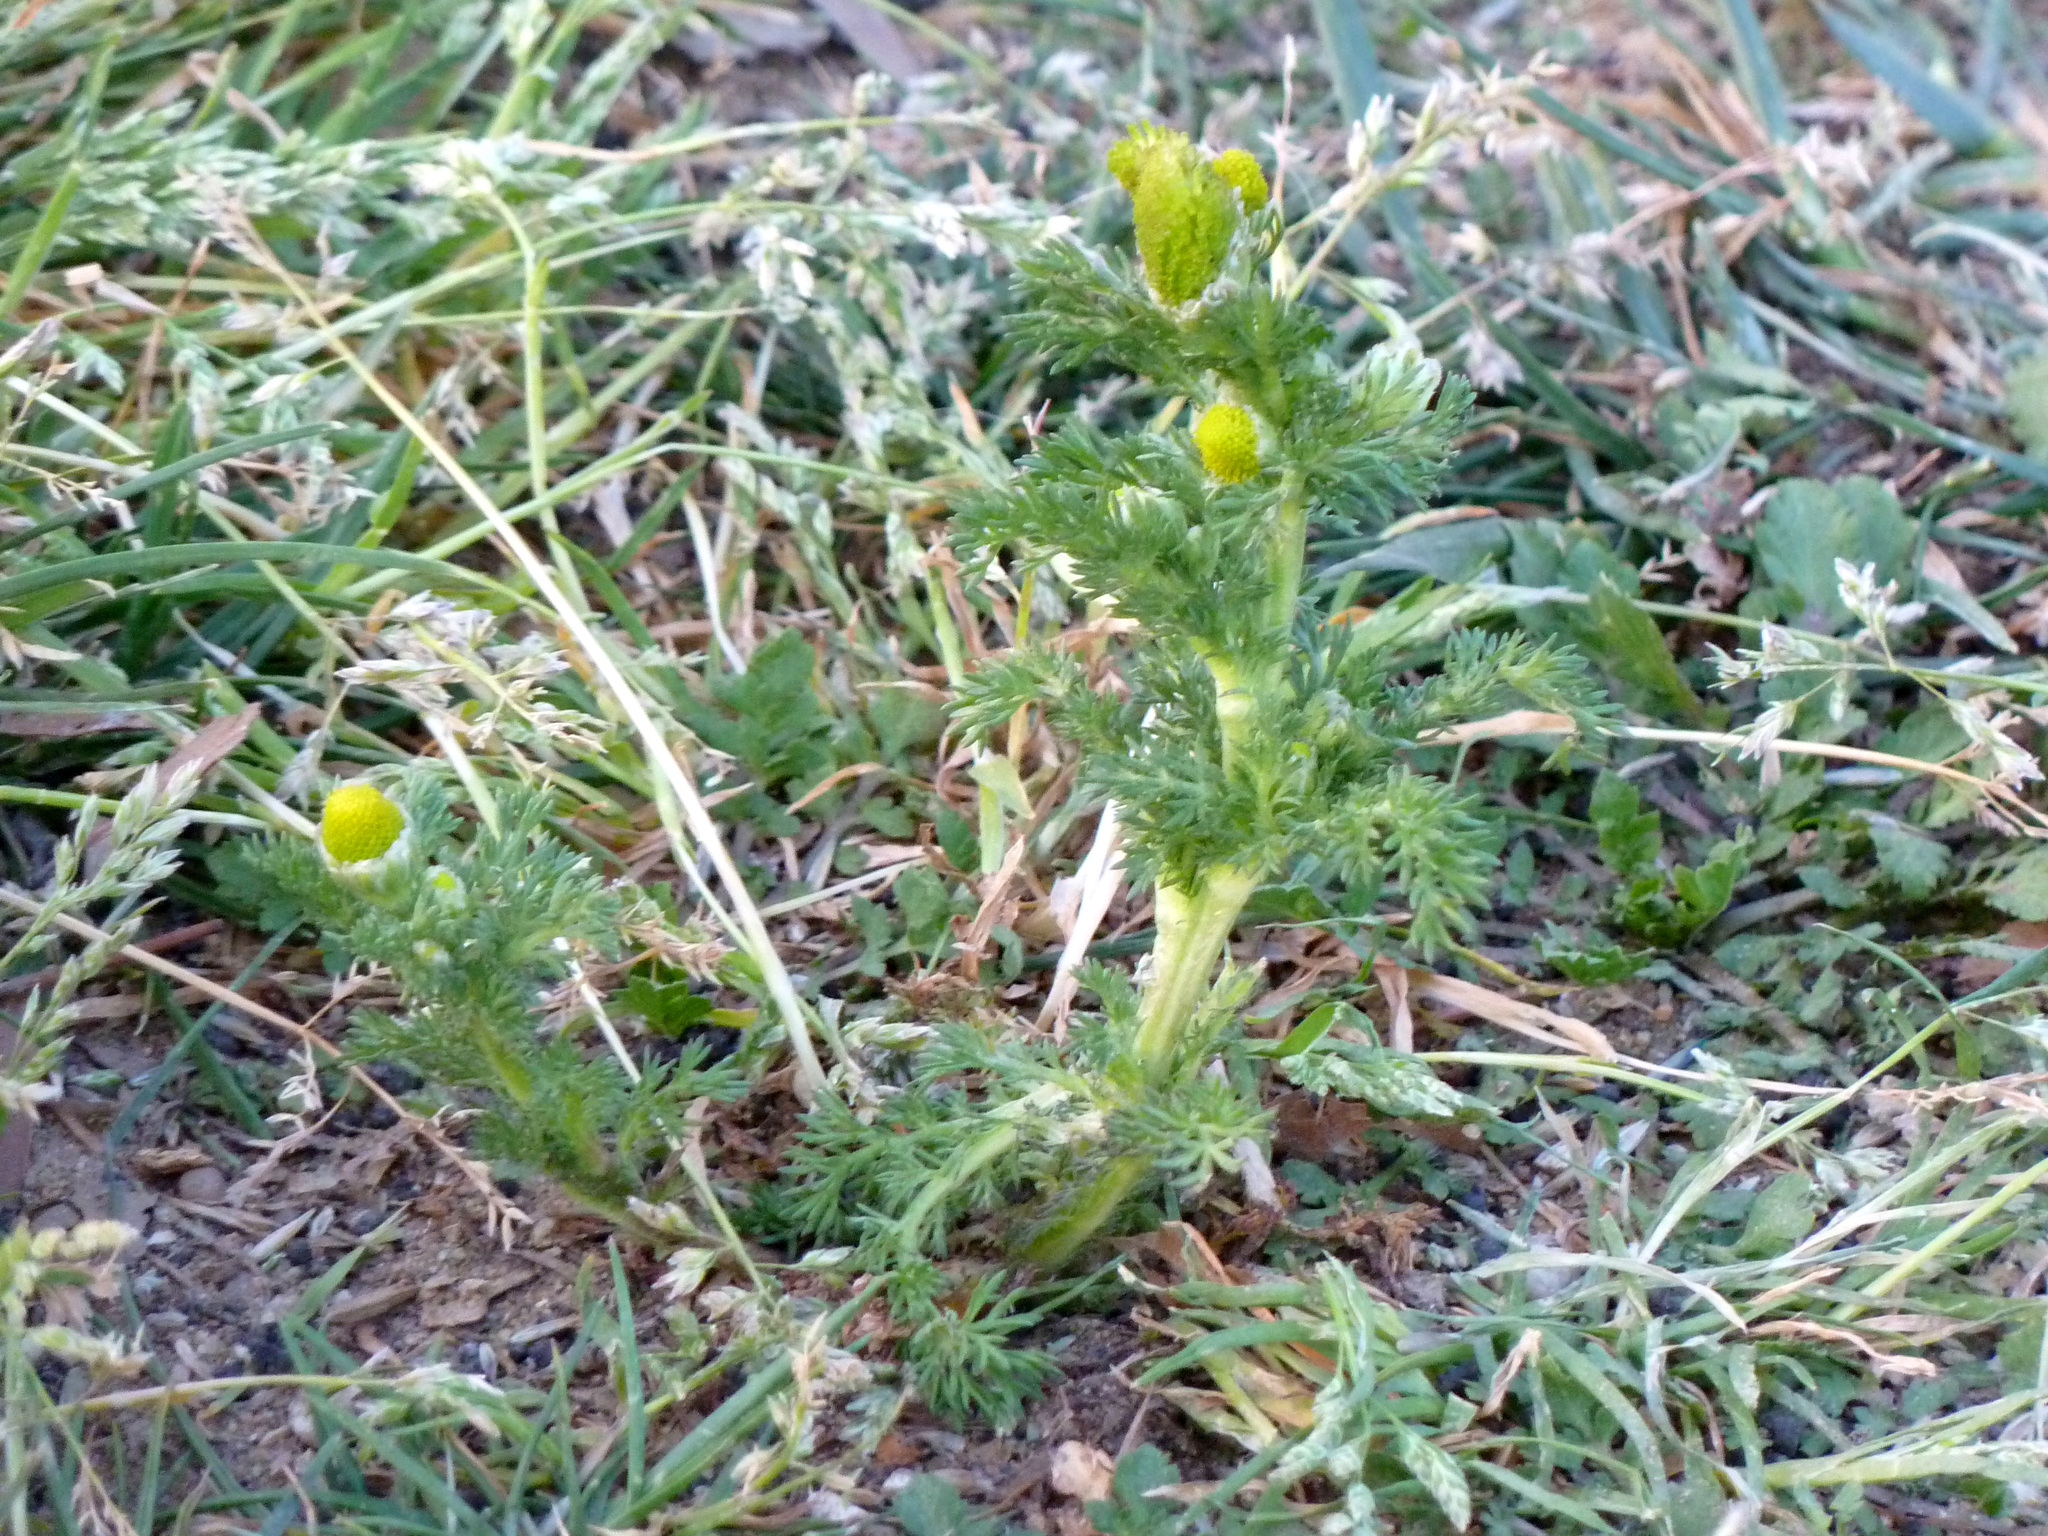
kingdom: Plantae
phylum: Tracheophyta
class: Magnoliopsida
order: Asterales
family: Asteraceae
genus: Matricaria
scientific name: Matricaria discoidea
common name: Disc mayweed
